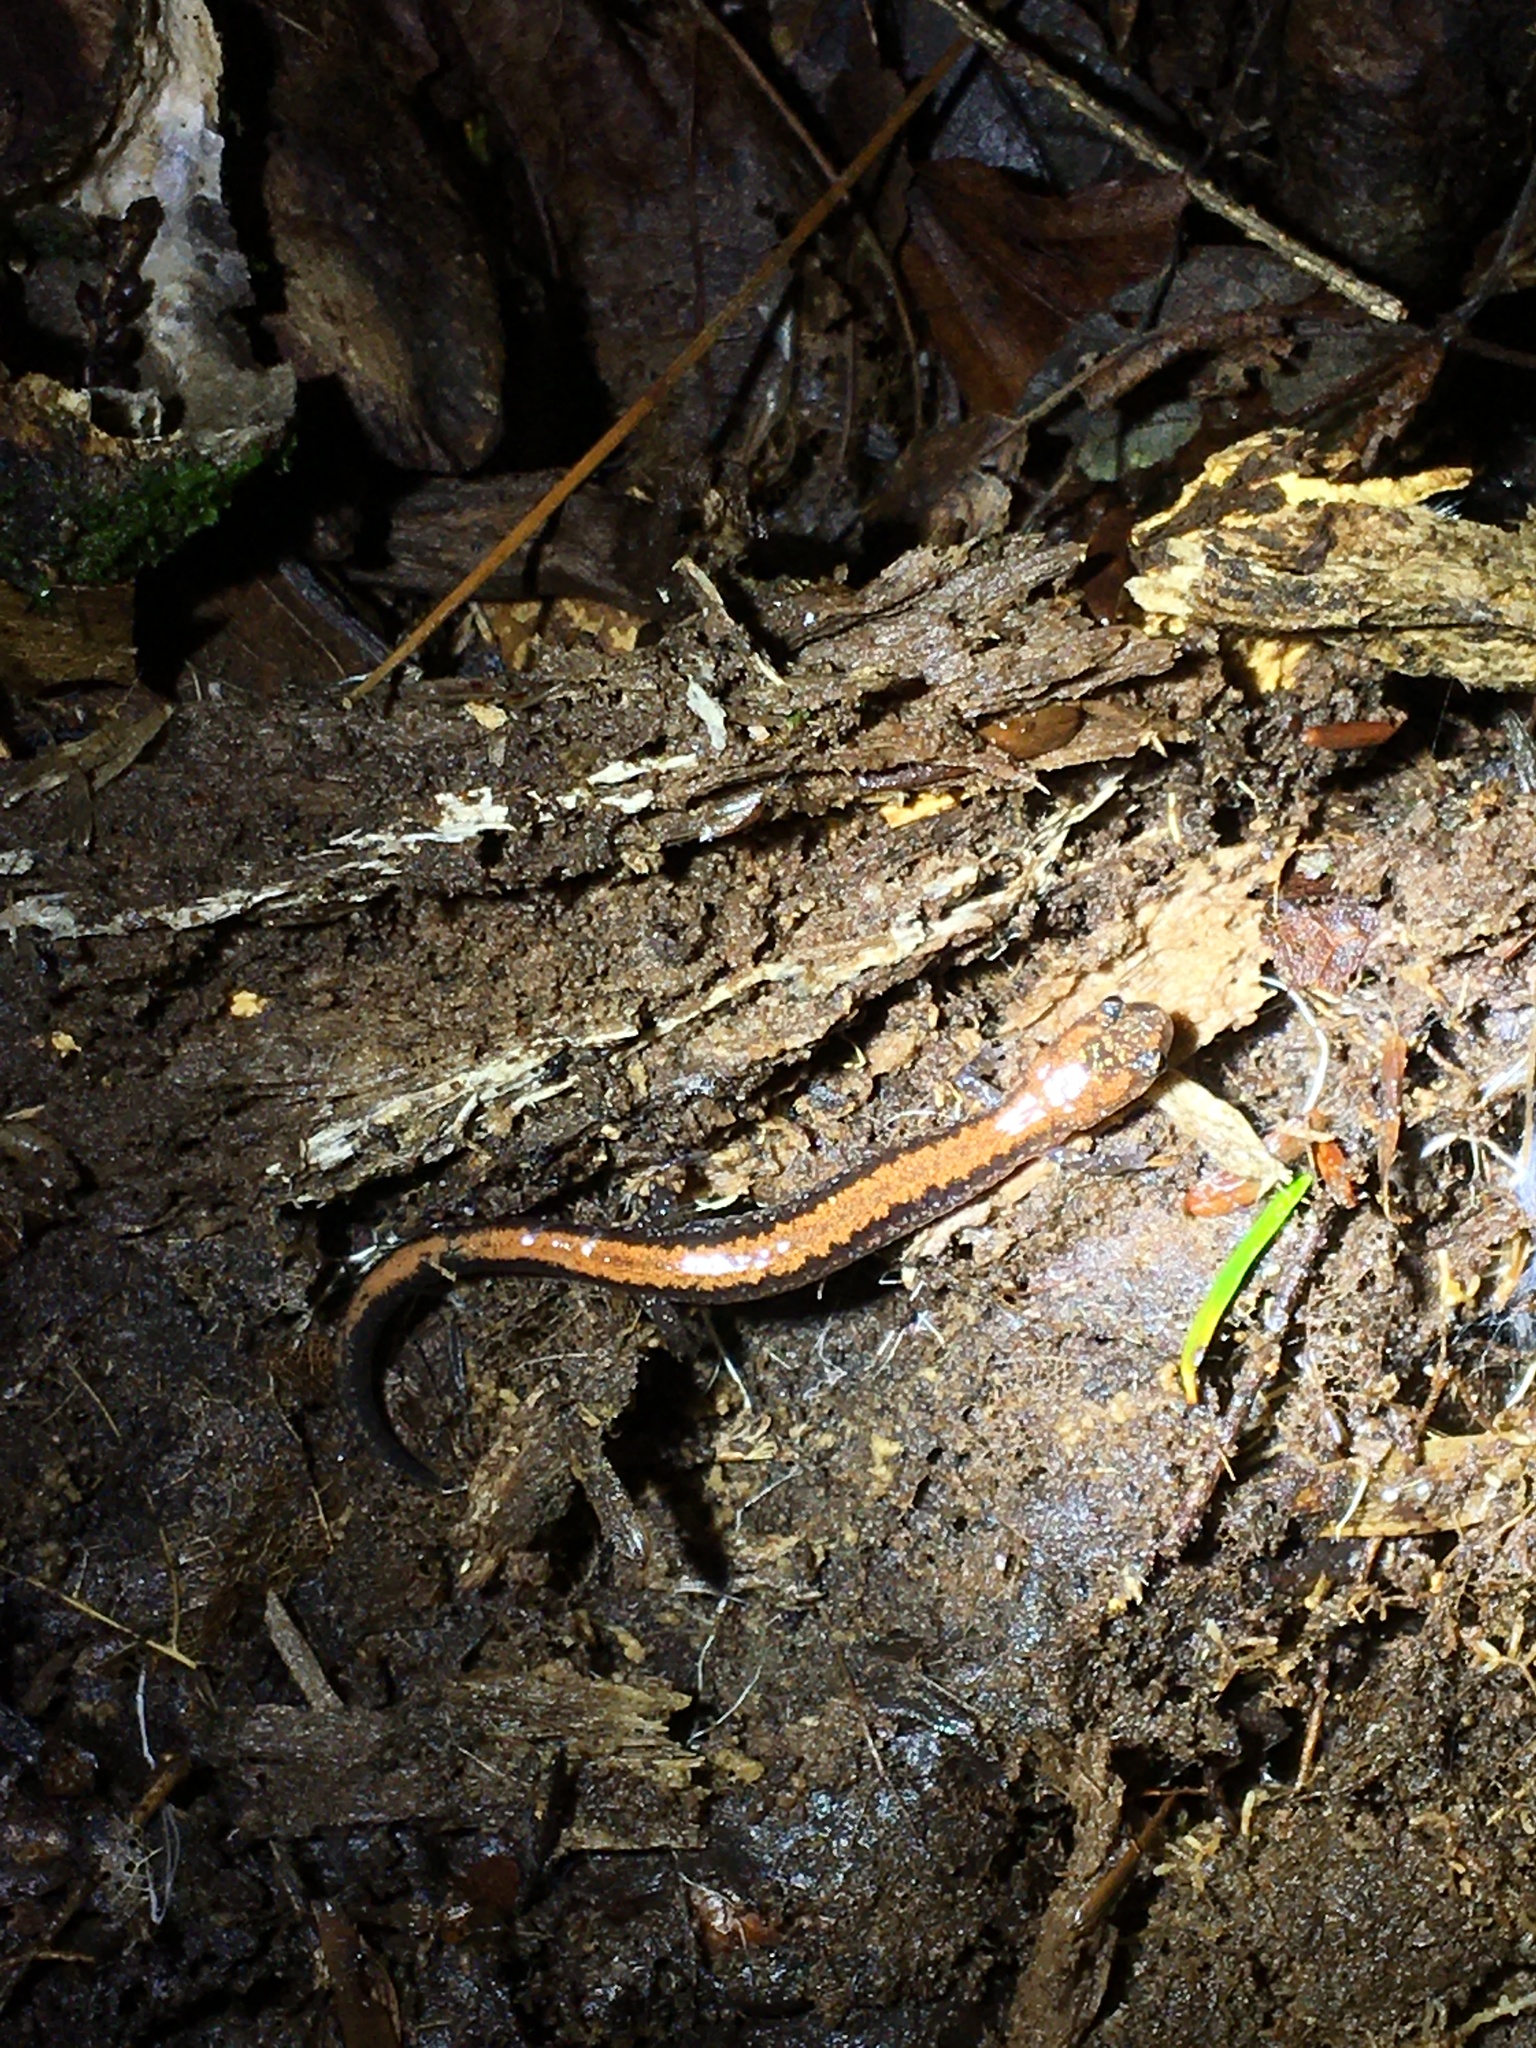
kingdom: Animalia
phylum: Chordata
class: Amphibia
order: Caudata
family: Plethodontidae
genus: Plethodon
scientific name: Plethodon cinereus
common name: Redback salamander
